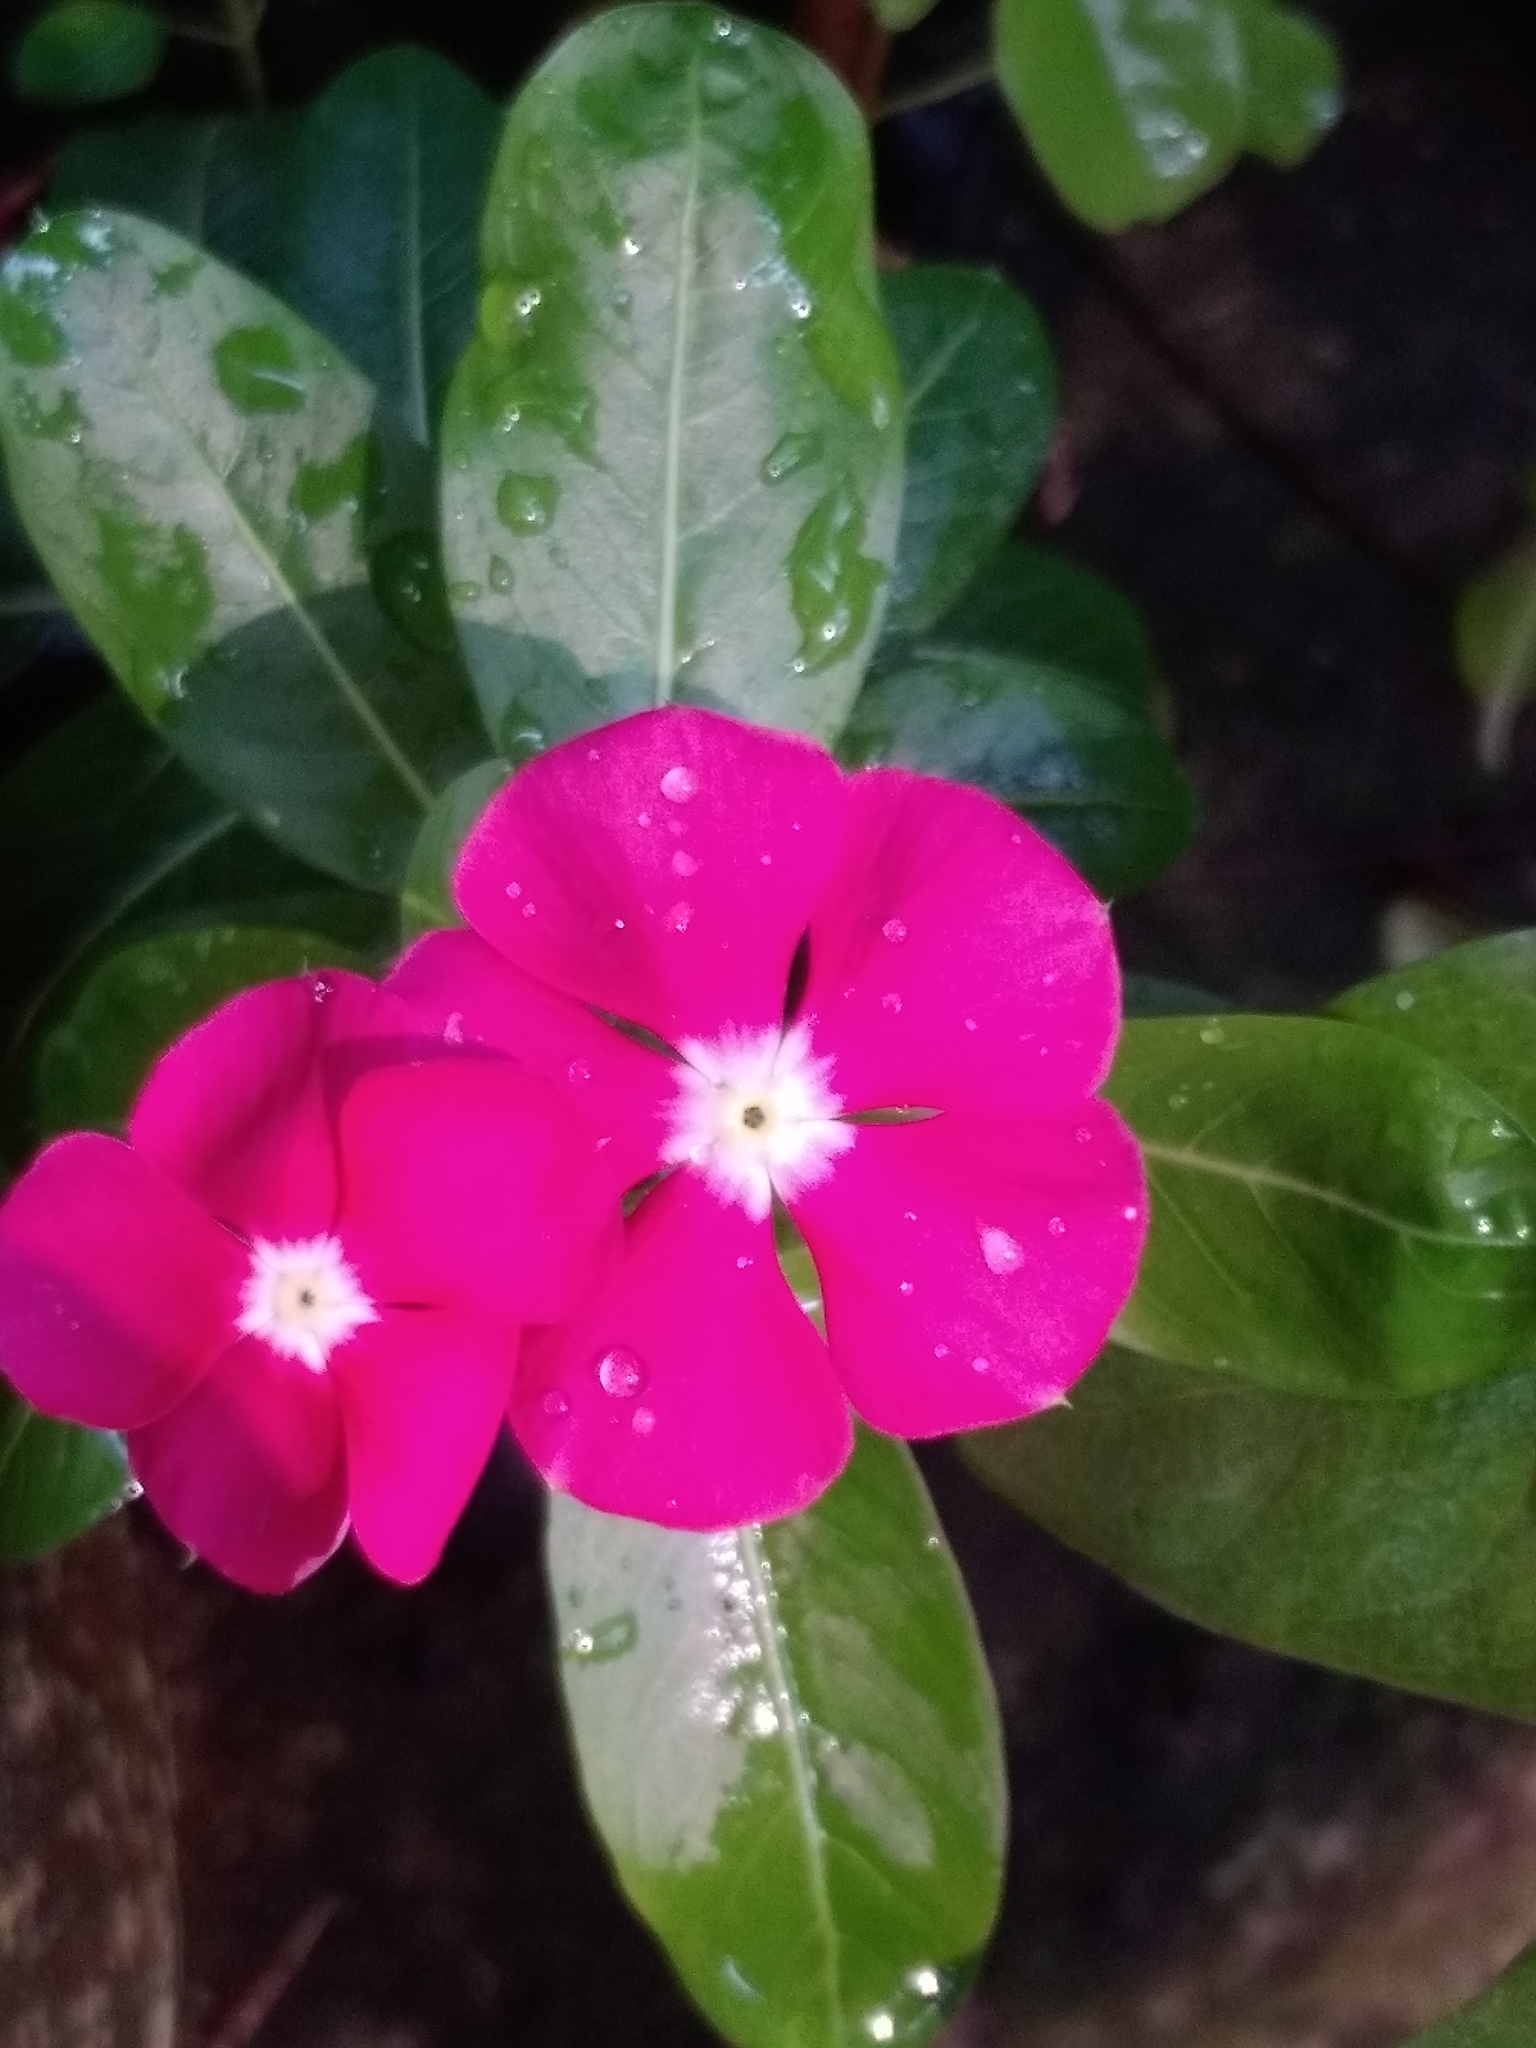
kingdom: Plantae
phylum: Tracheophyta
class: Magnoliopsida
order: Gentianales
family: Apocynaceae
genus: Catharanthus
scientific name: Catharanthus roseus
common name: Madagascar periwinkle
